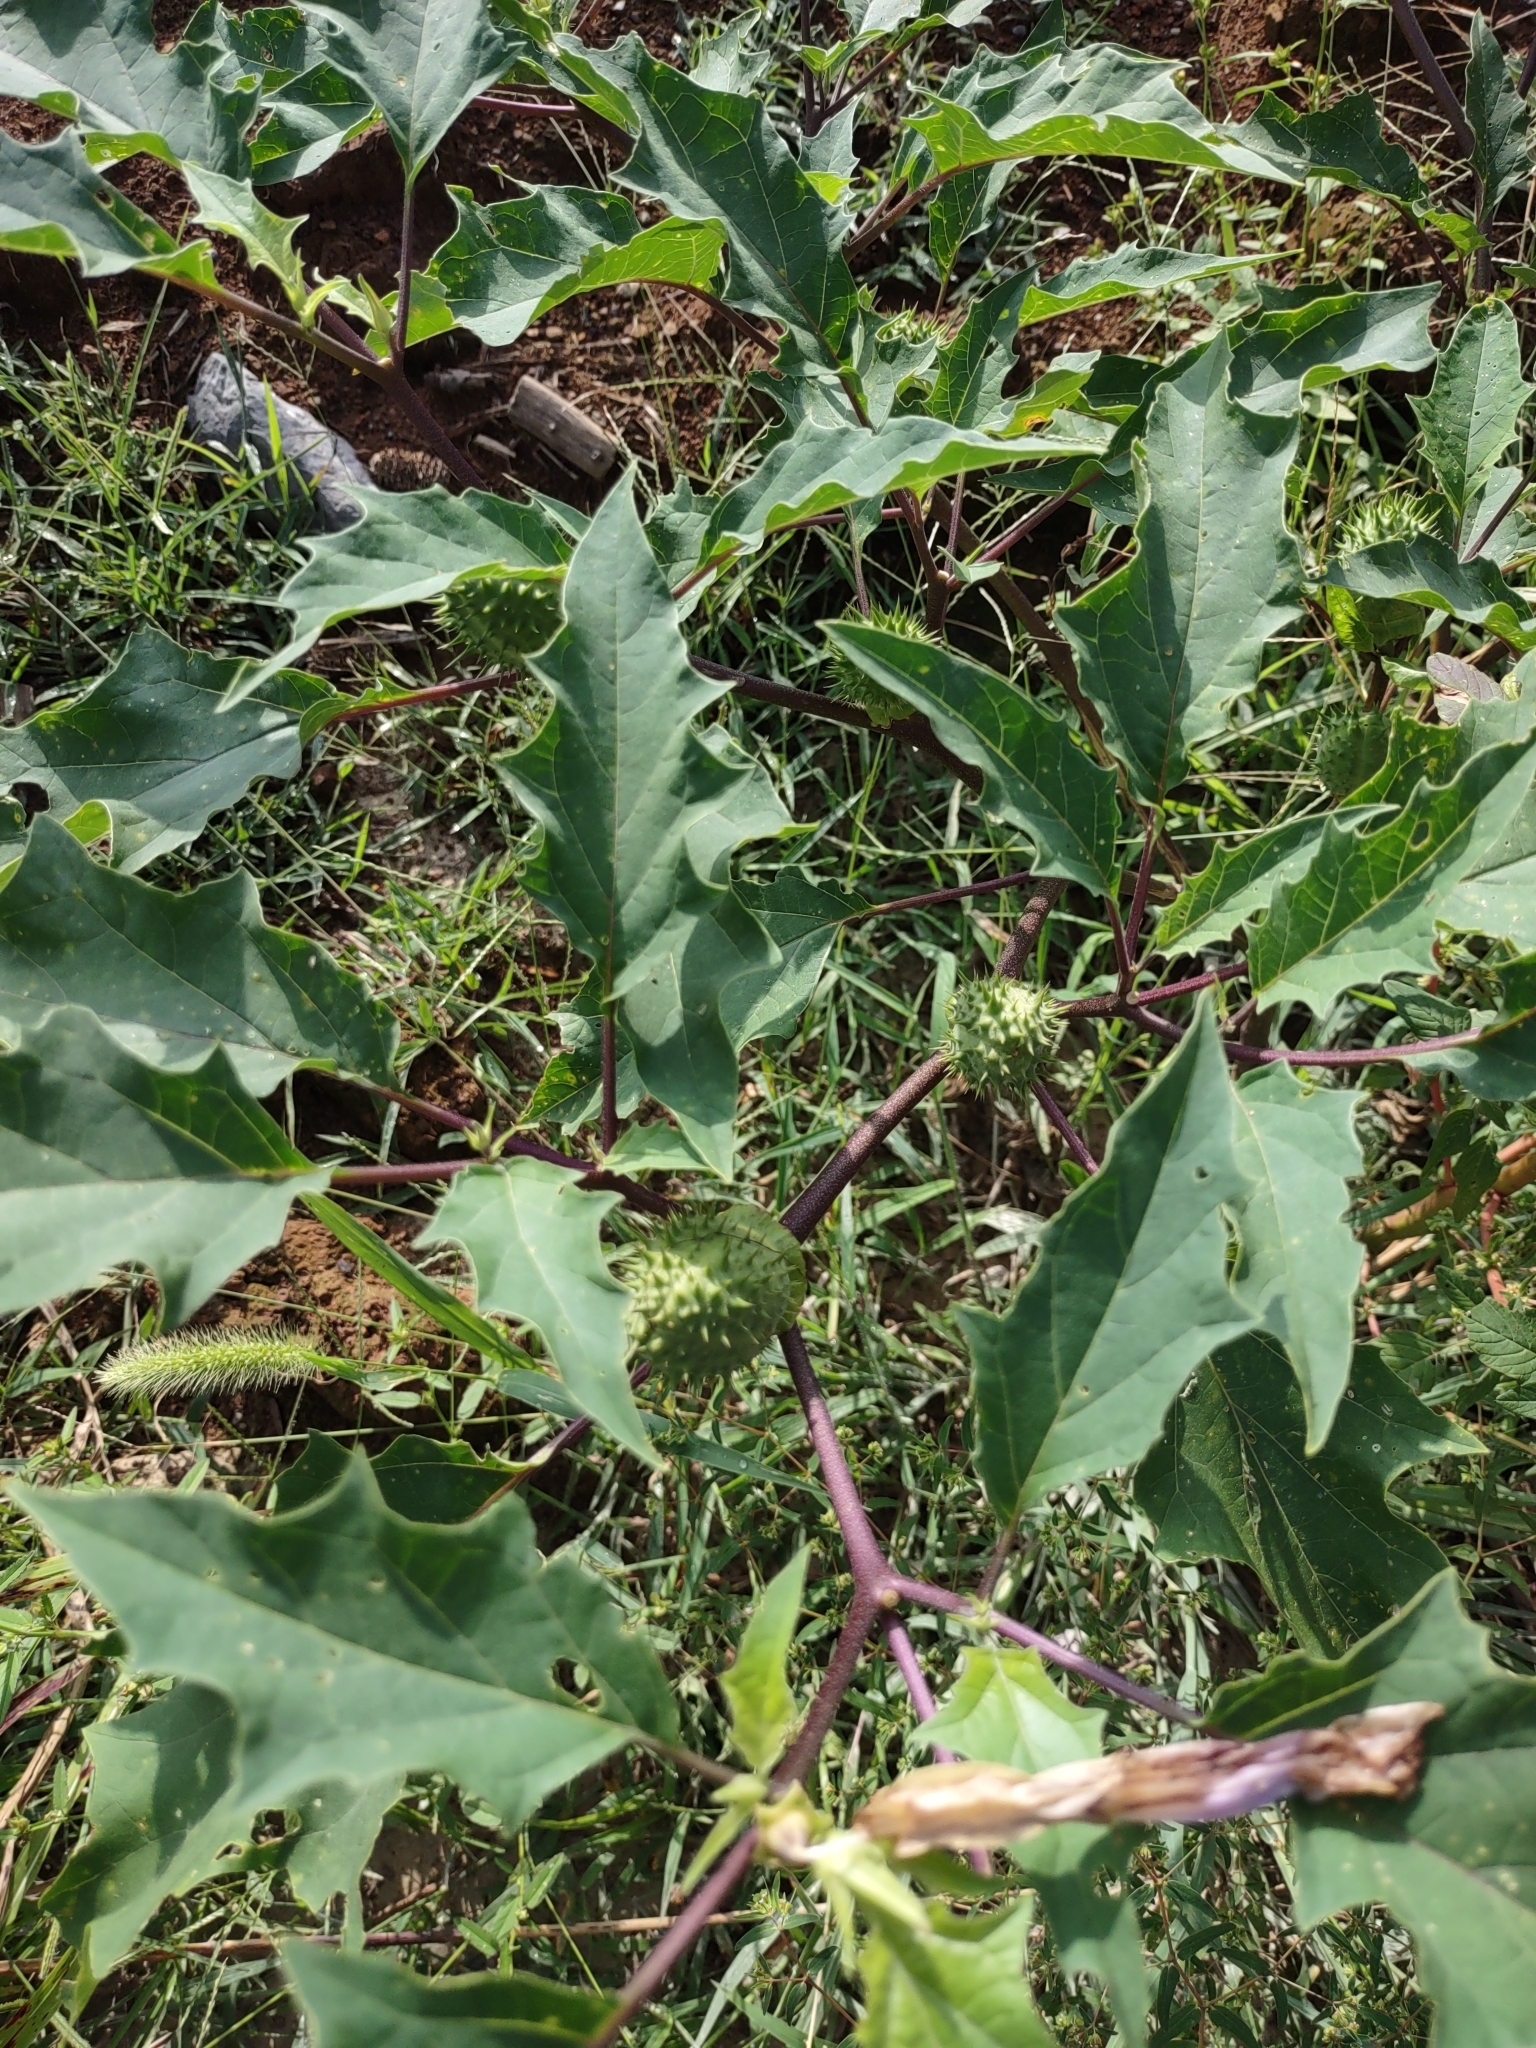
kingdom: Plantae
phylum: Tracheophyta
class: Magnoliopsida
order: Solanales
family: Solanaceae
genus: Datura
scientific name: Datura stramonium
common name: Thorn-apple
